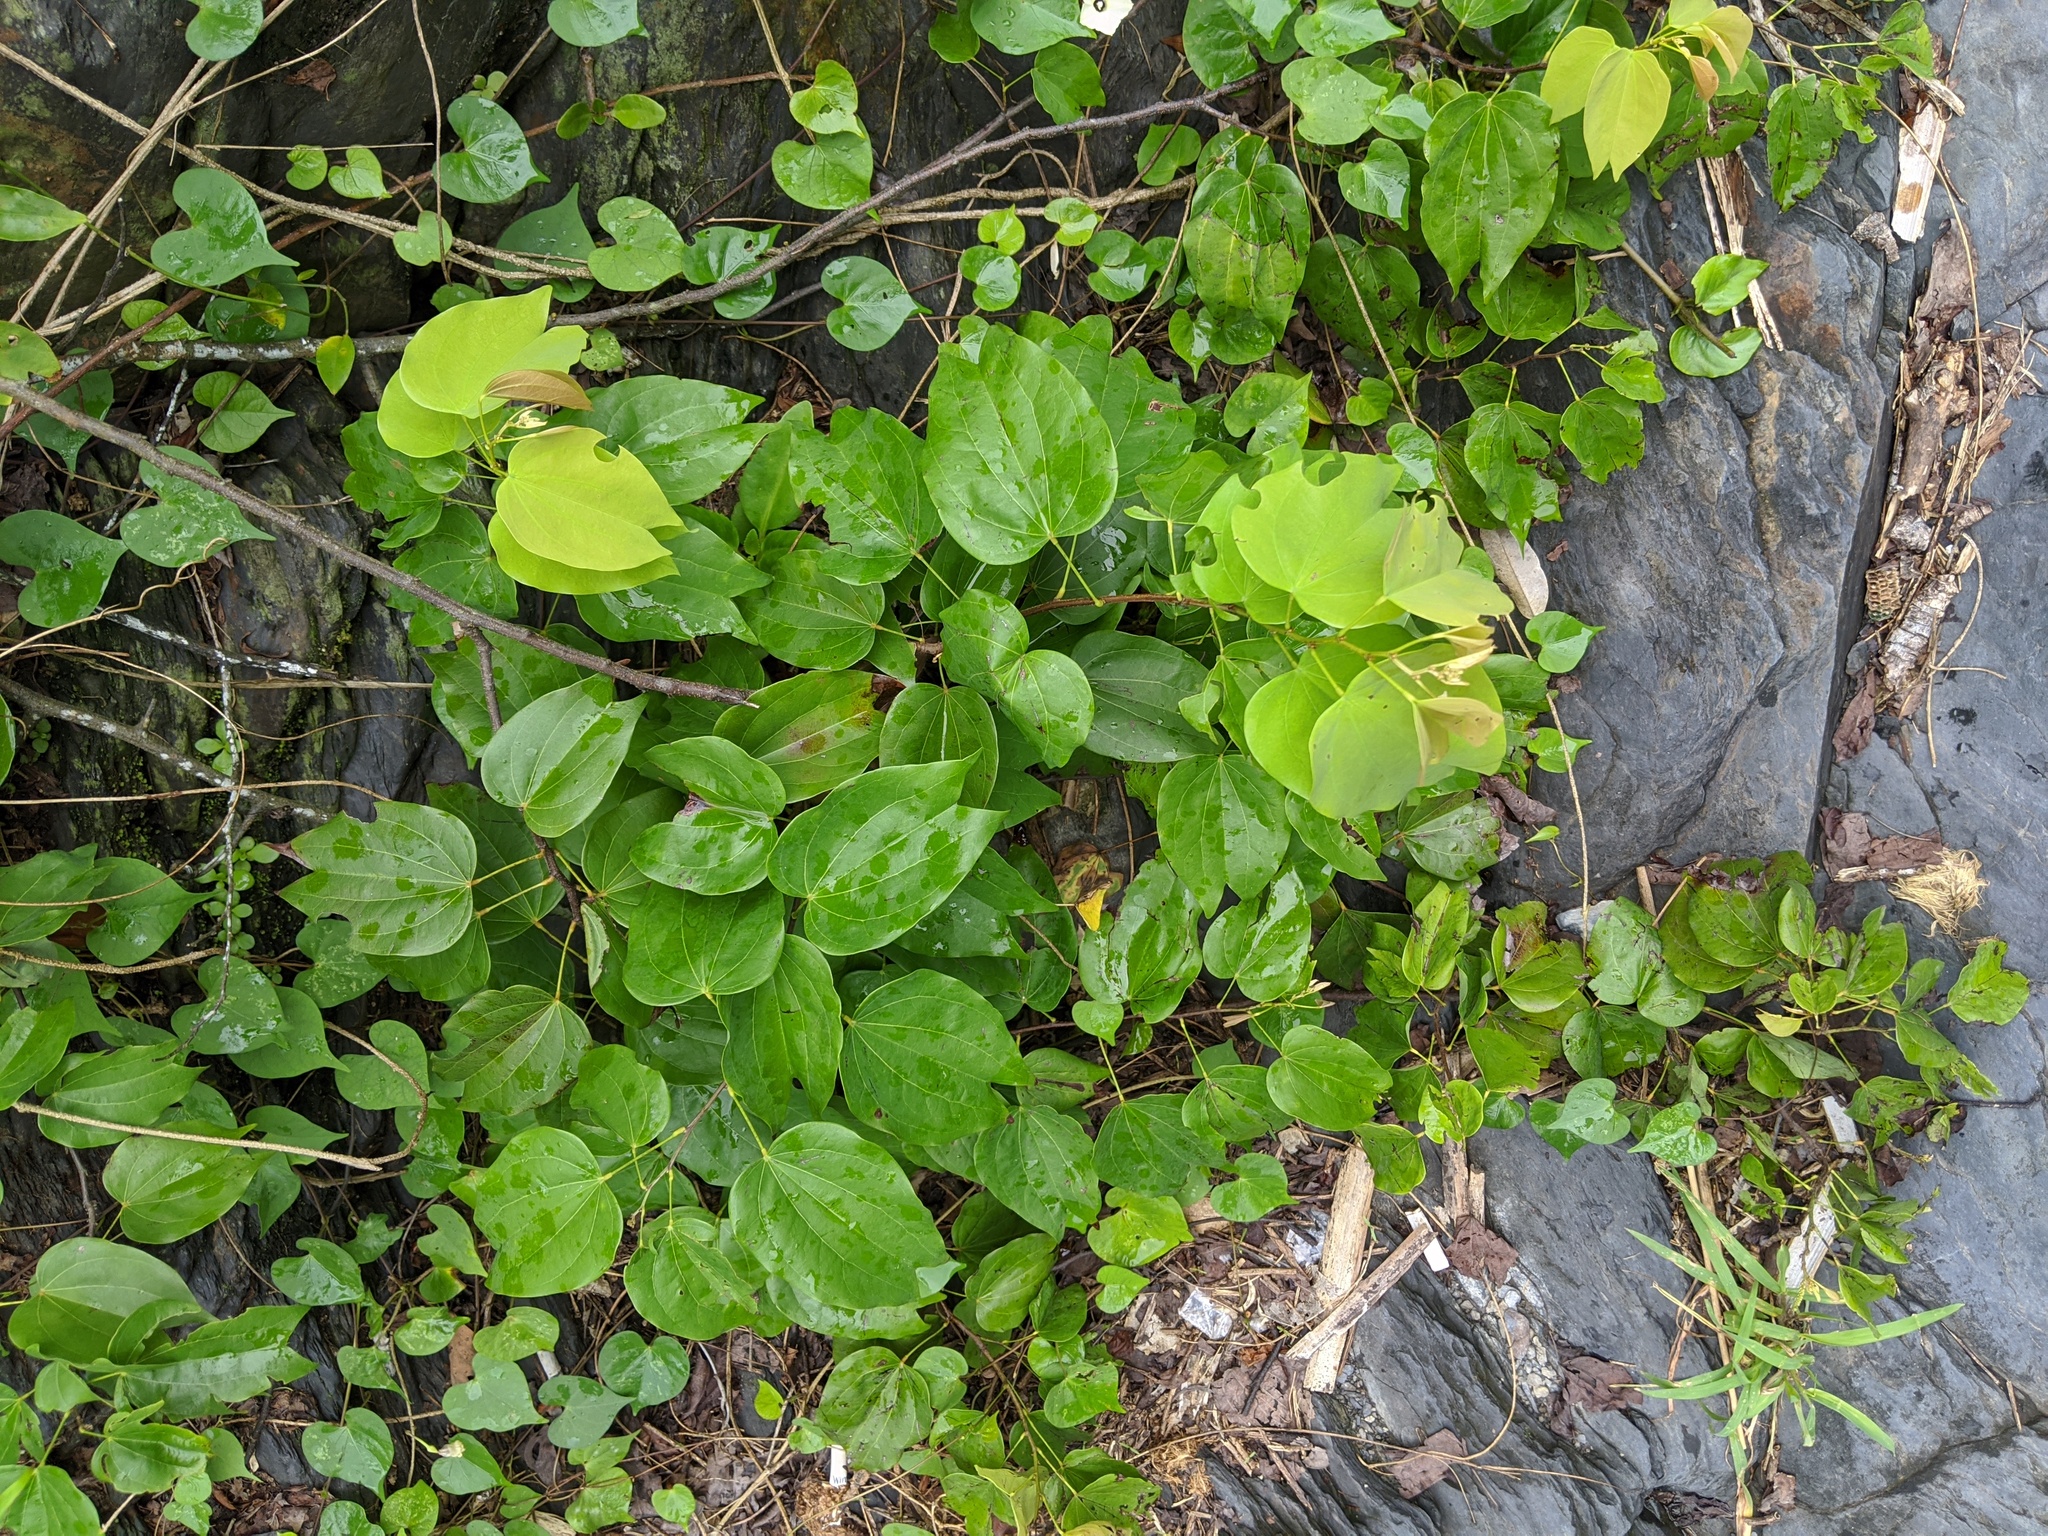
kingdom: Plantae
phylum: Tracheophyta
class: Magnoliopsida
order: Fabales
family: Fabaceae
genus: Phanera
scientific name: Phanera championii
